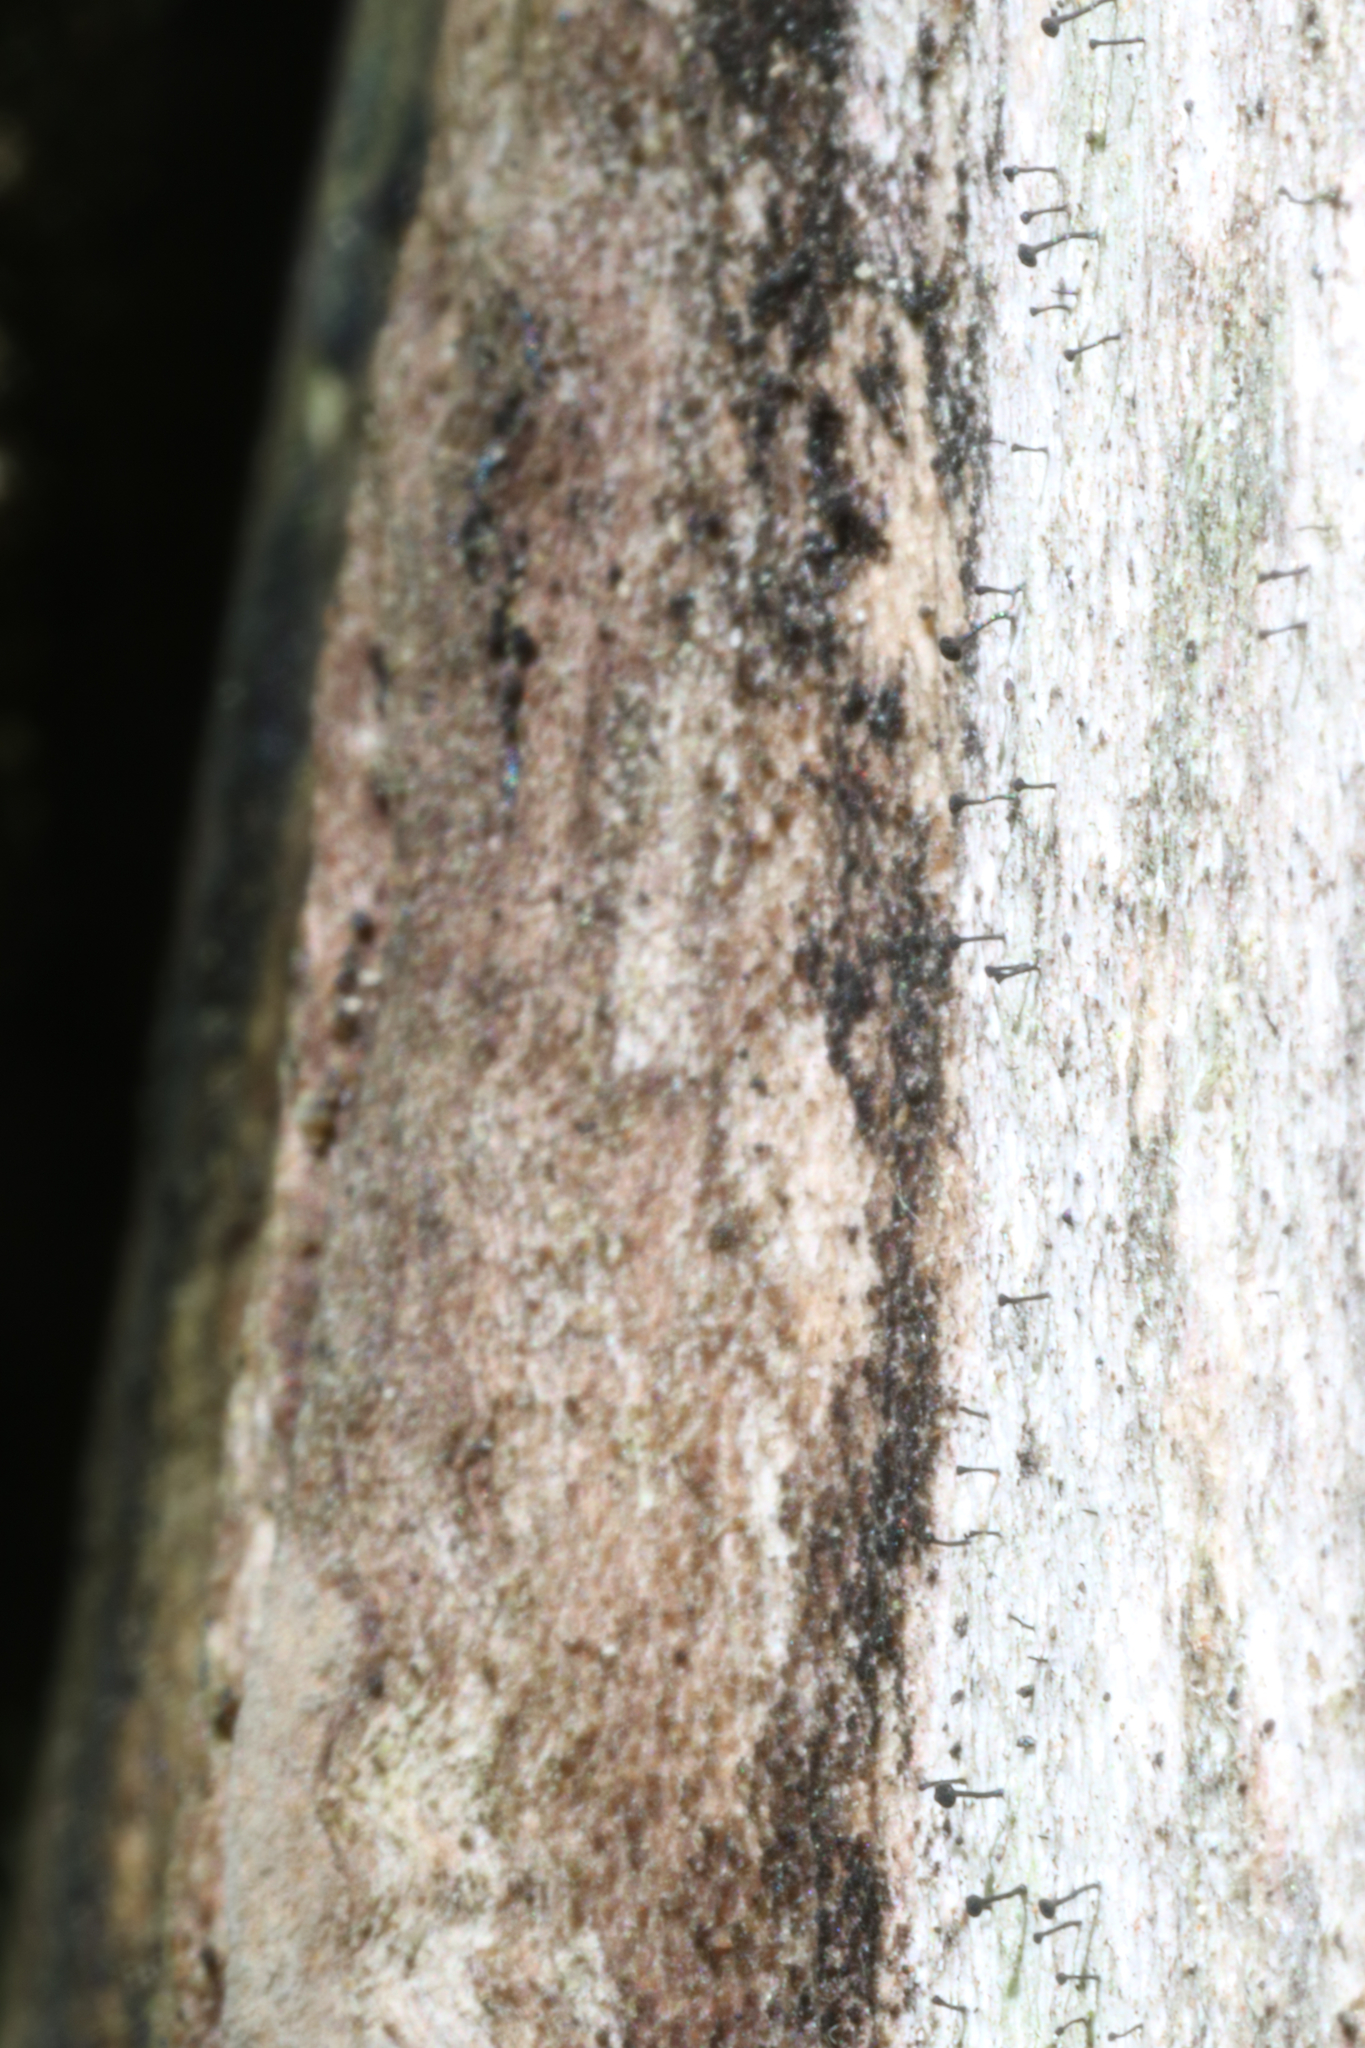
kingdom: Fungi
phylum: Ascomycota
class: Eurotiomycetes
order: Mycocaliciales
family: Mycocaliciaceae
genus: Mycocalicium
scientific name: Mycocalicium subtile
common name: Snag pin lichen
